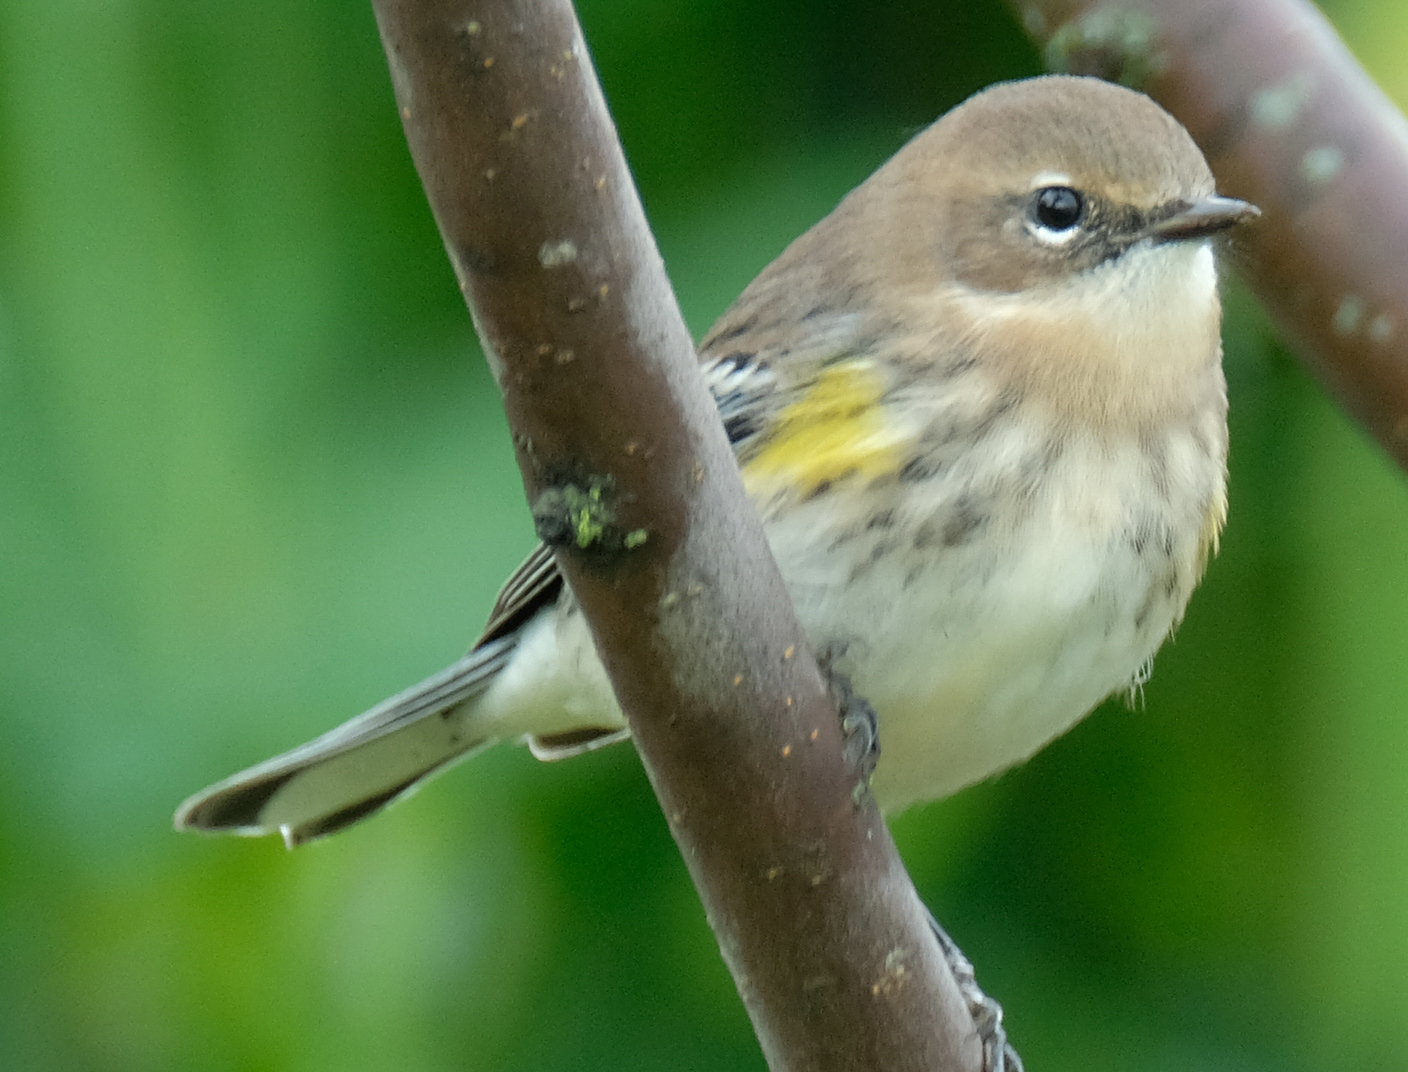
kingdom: Animalia
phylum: Chordata
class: Aves
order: Passeriformes
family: Parulidae
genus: Setophaga
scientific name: Setophaga coronata
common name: Myrtle warbler
